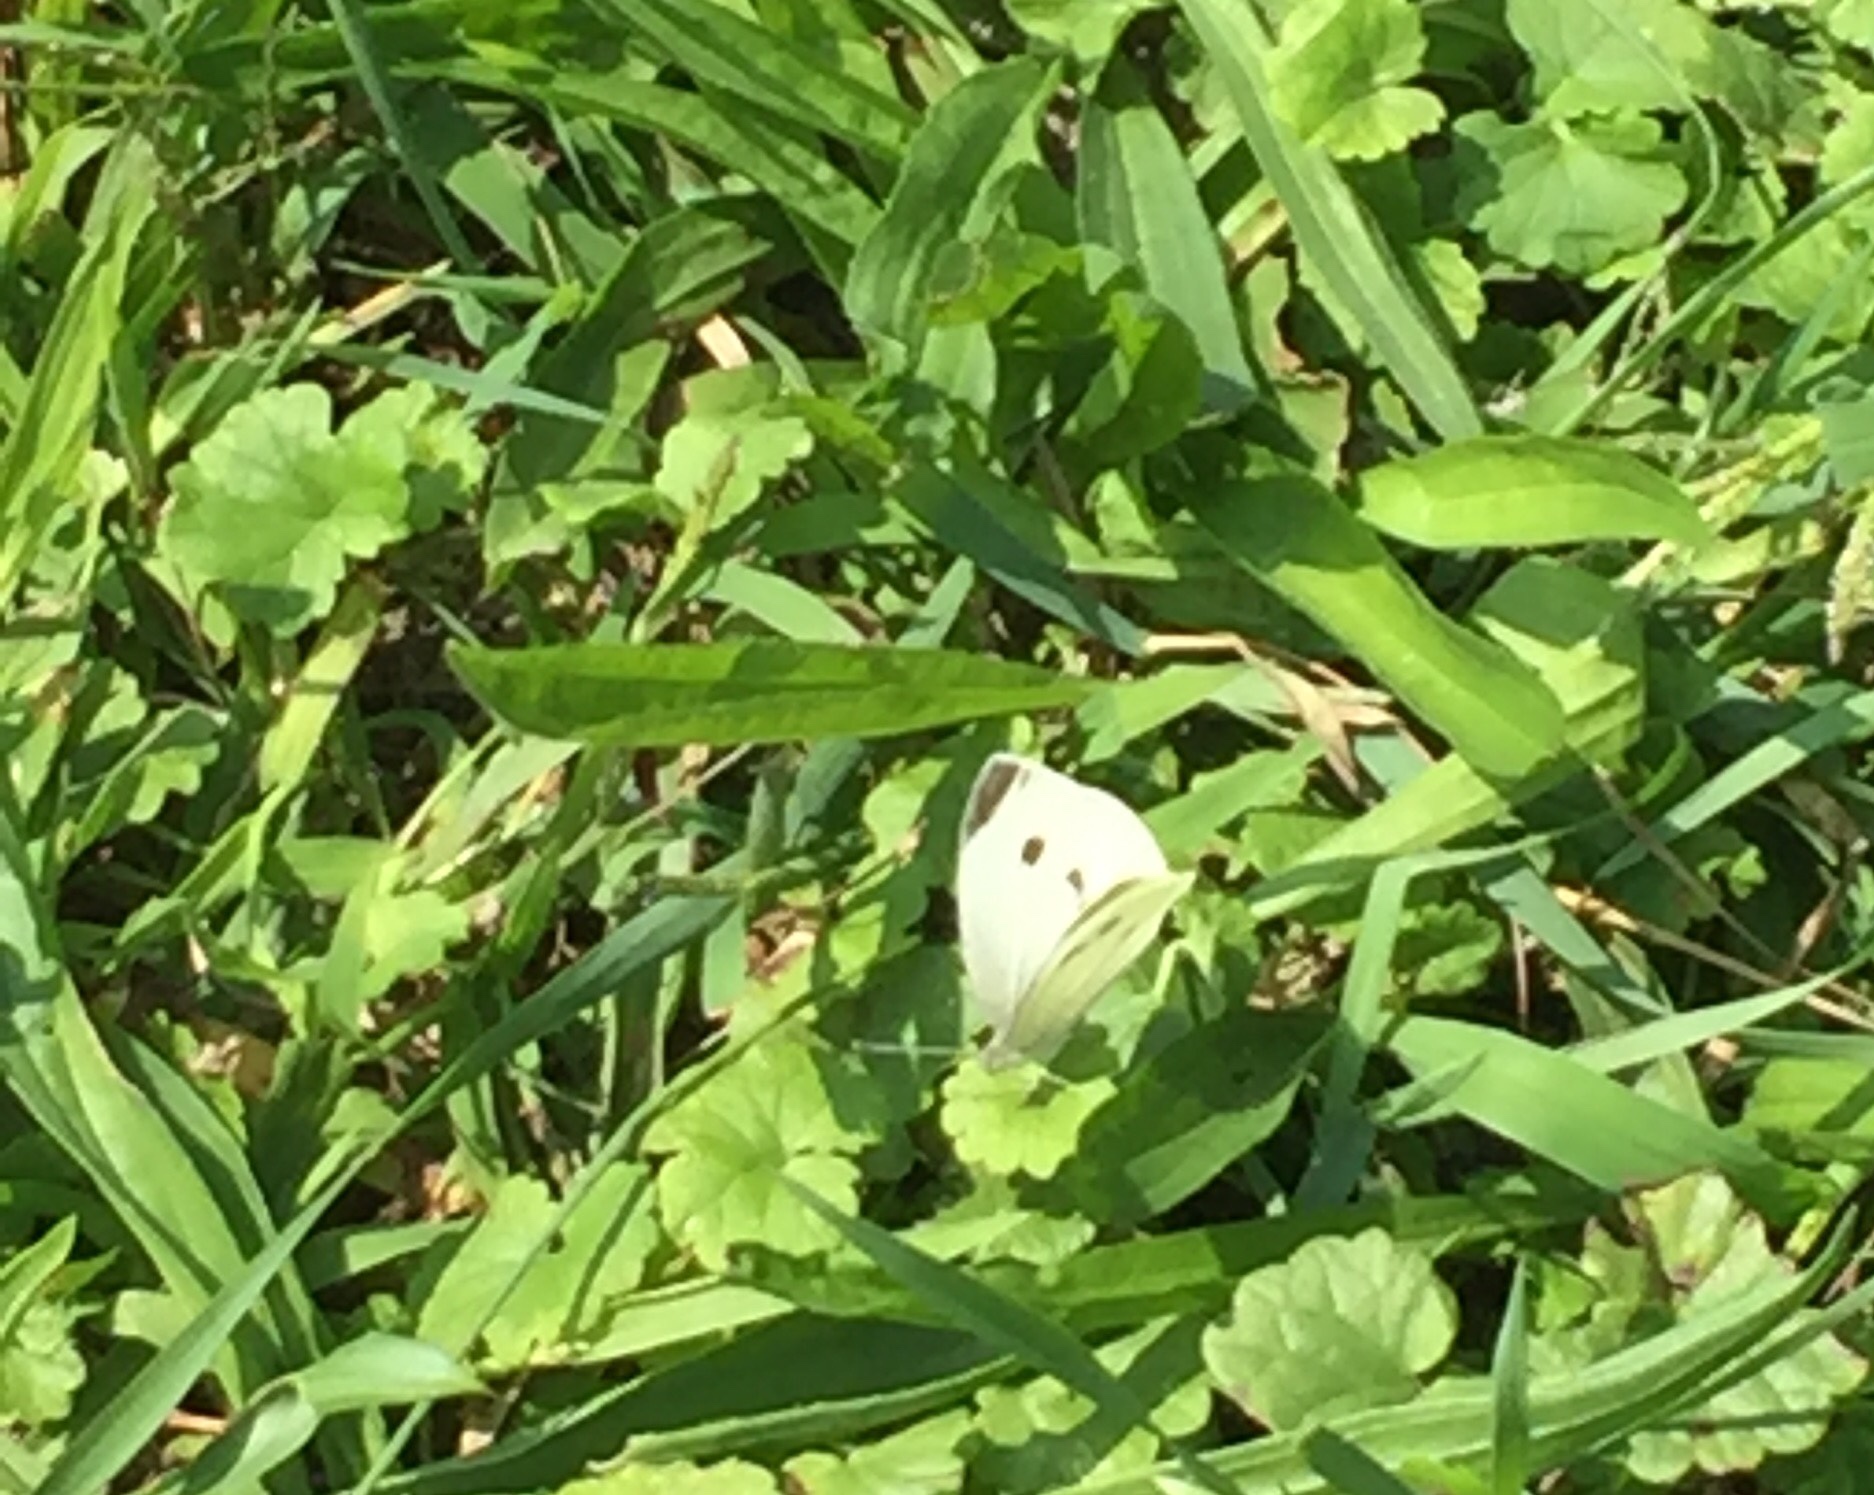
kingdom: Animalia
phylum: Arthropoda
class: Insecta
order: Lepidoptera
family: Pieridae
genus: Pieris
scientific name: Pieris rapae
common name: Small white
